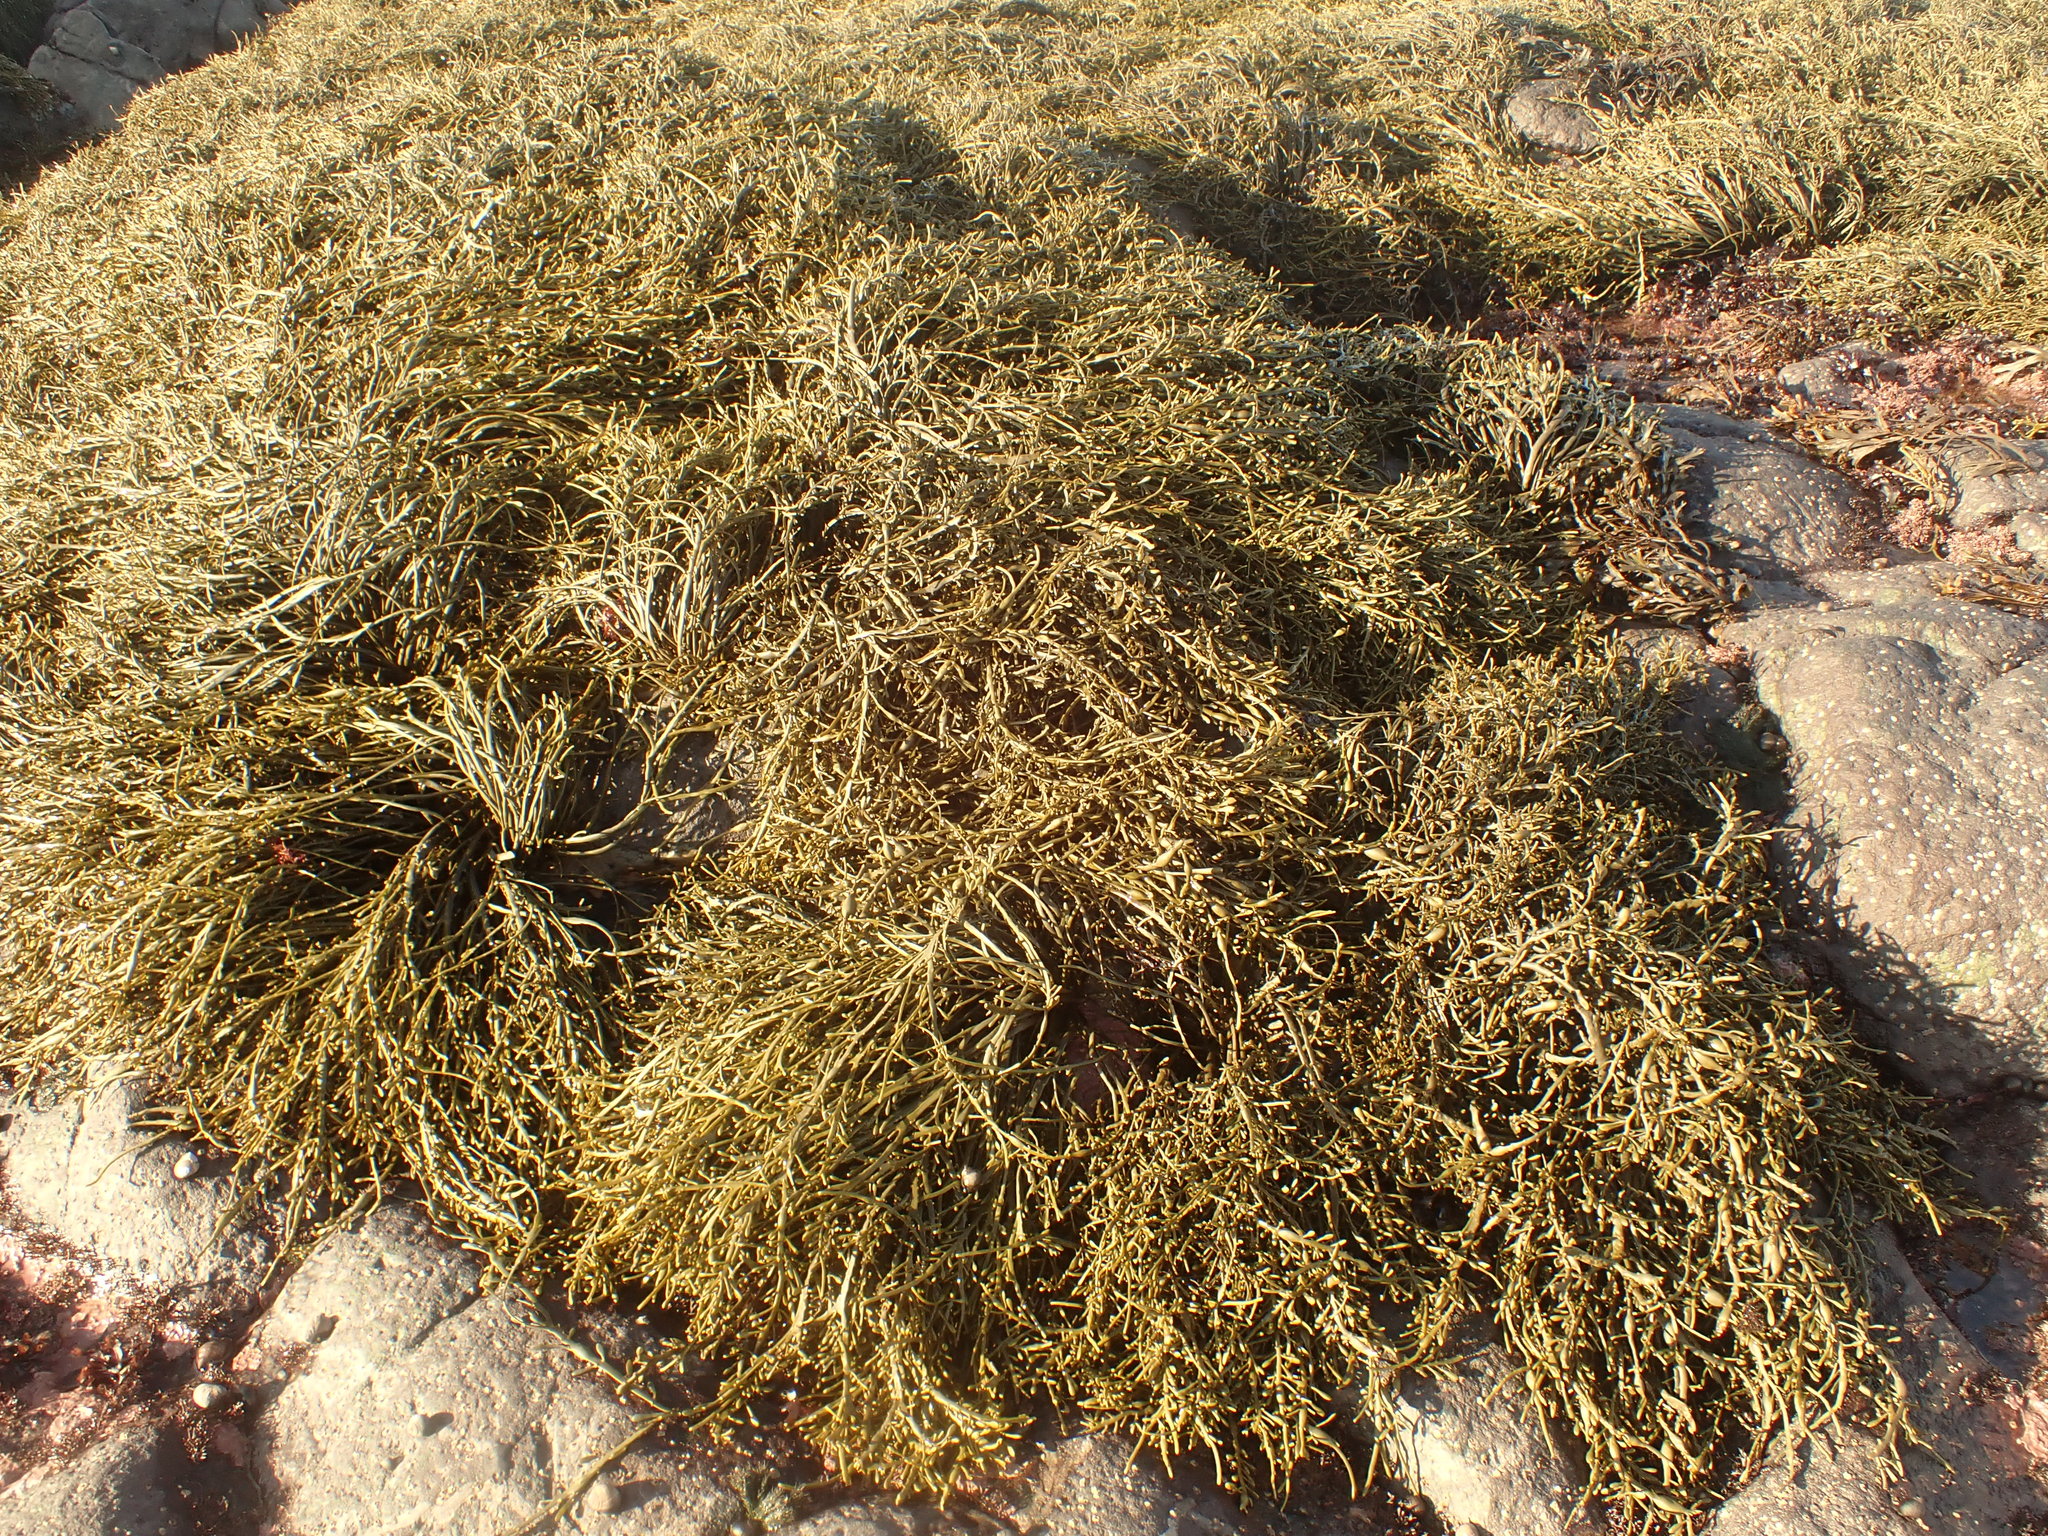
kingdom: Chromista
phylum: Ochrophyta
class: Phaeophyceae
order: Fucales
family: Fucaceae
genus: Ascophyllum
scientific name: Ascophyllum nodosum
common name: Knotted wrack
